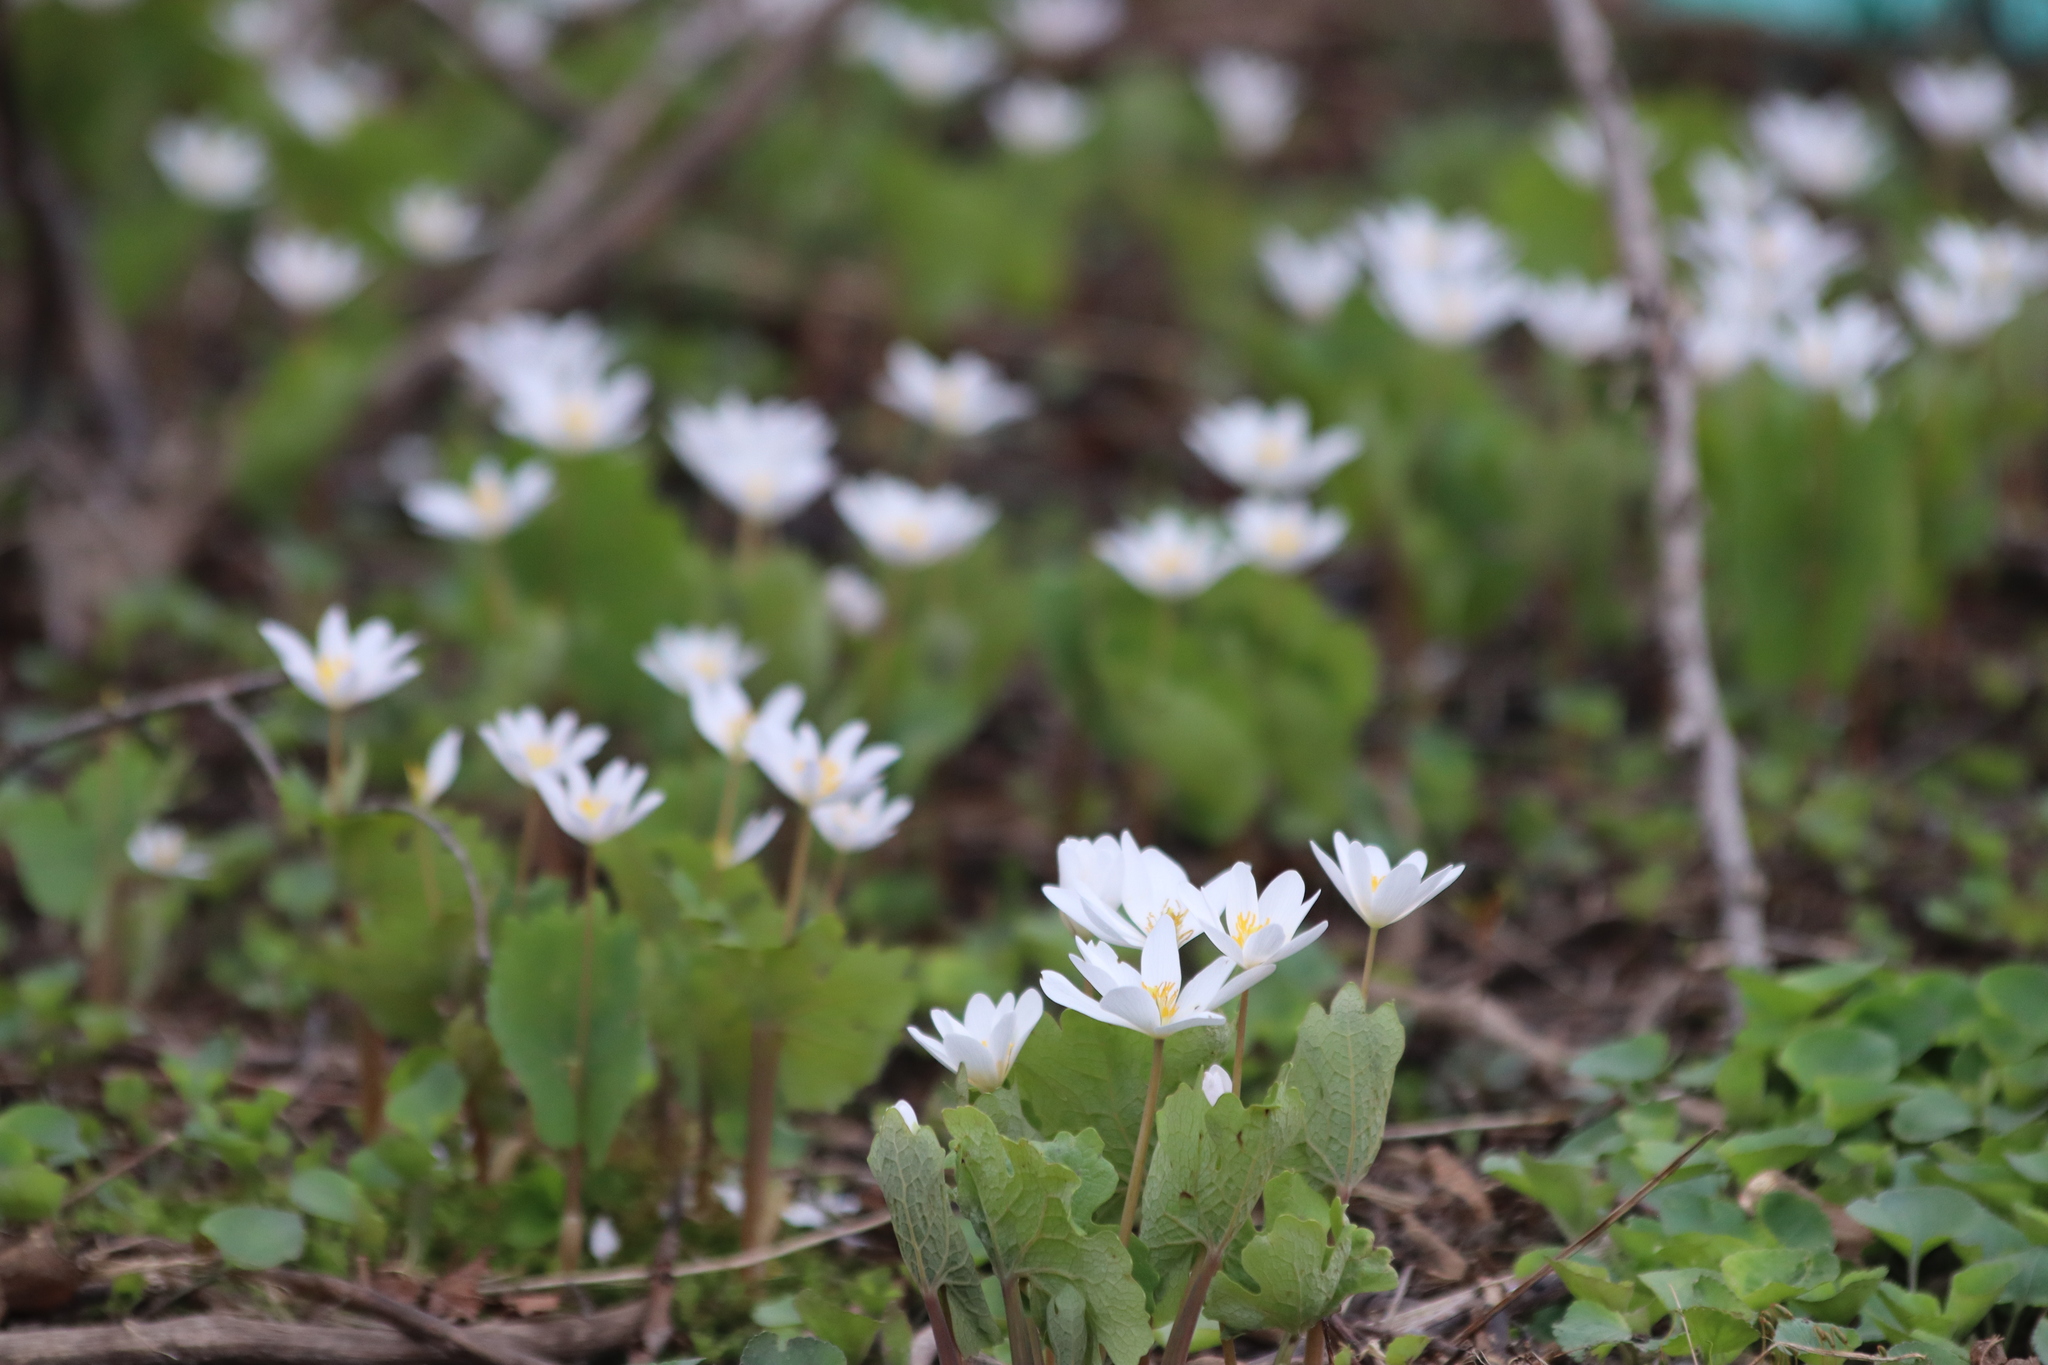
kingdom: Plantae
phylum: Tracheophyta
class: Magnoliopsida
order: Ranunculales
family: Papaveraceae
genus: Sanguinaria
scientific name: Sanguinaria canadensis
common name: Bloodroot
